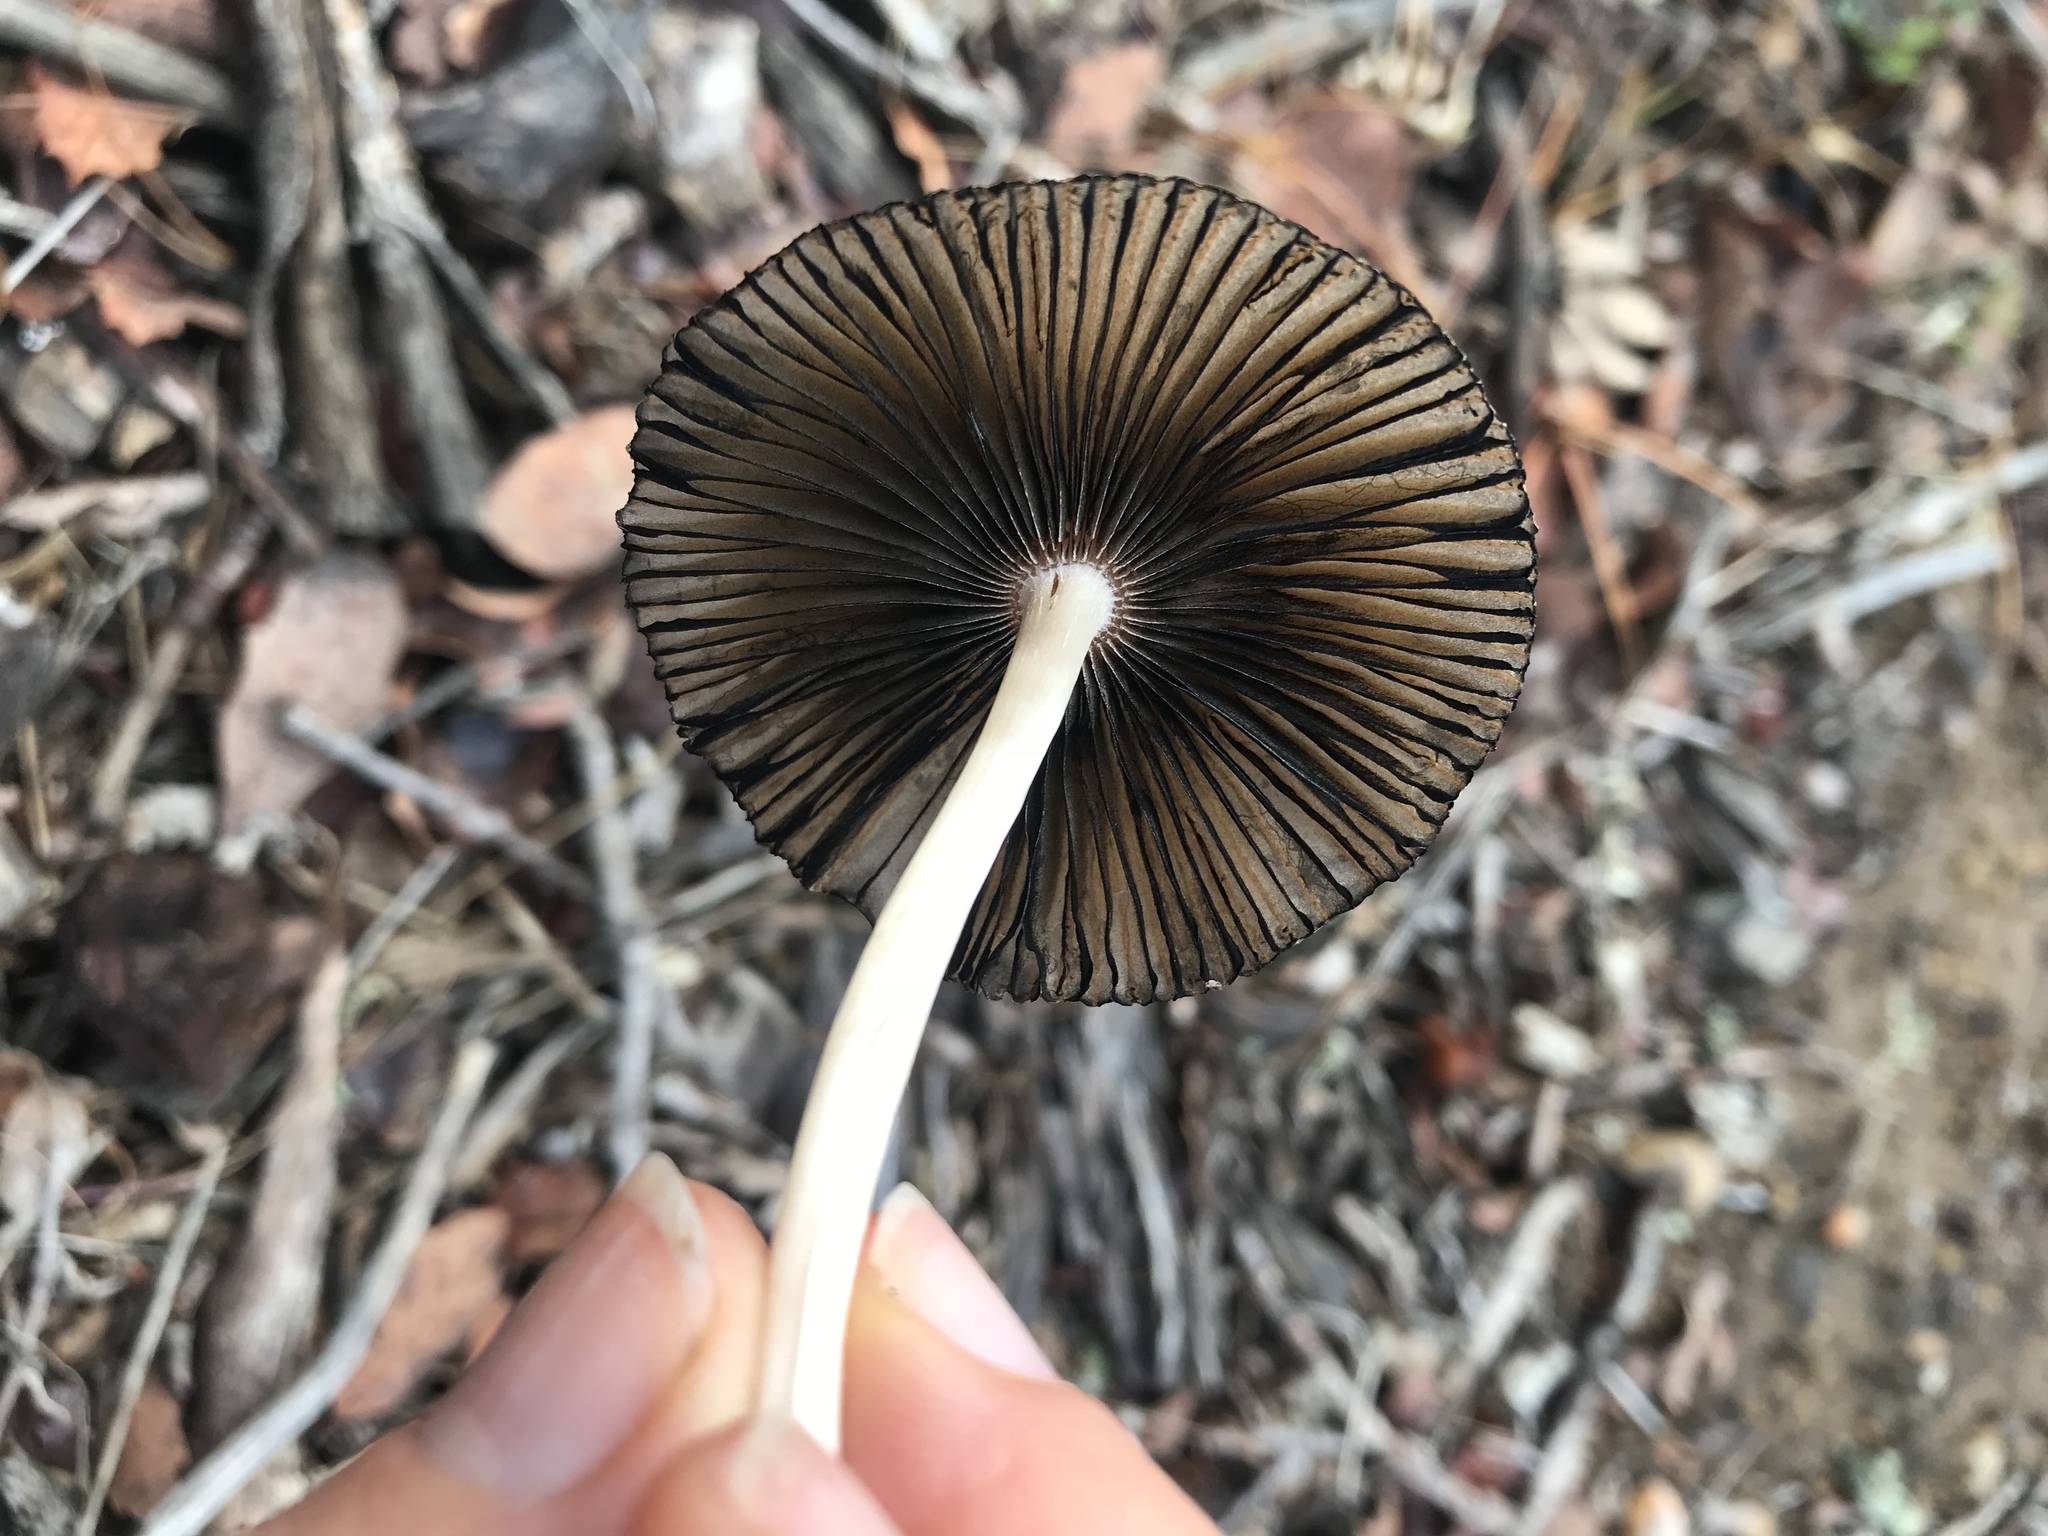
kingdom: Fungi
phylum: Basidiomycota
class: Agaricomycetes
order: Agaricales
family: Psathyrellaceae
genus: Parasola
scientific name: Parasola auricoma
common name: Goldenhaired inkcap
